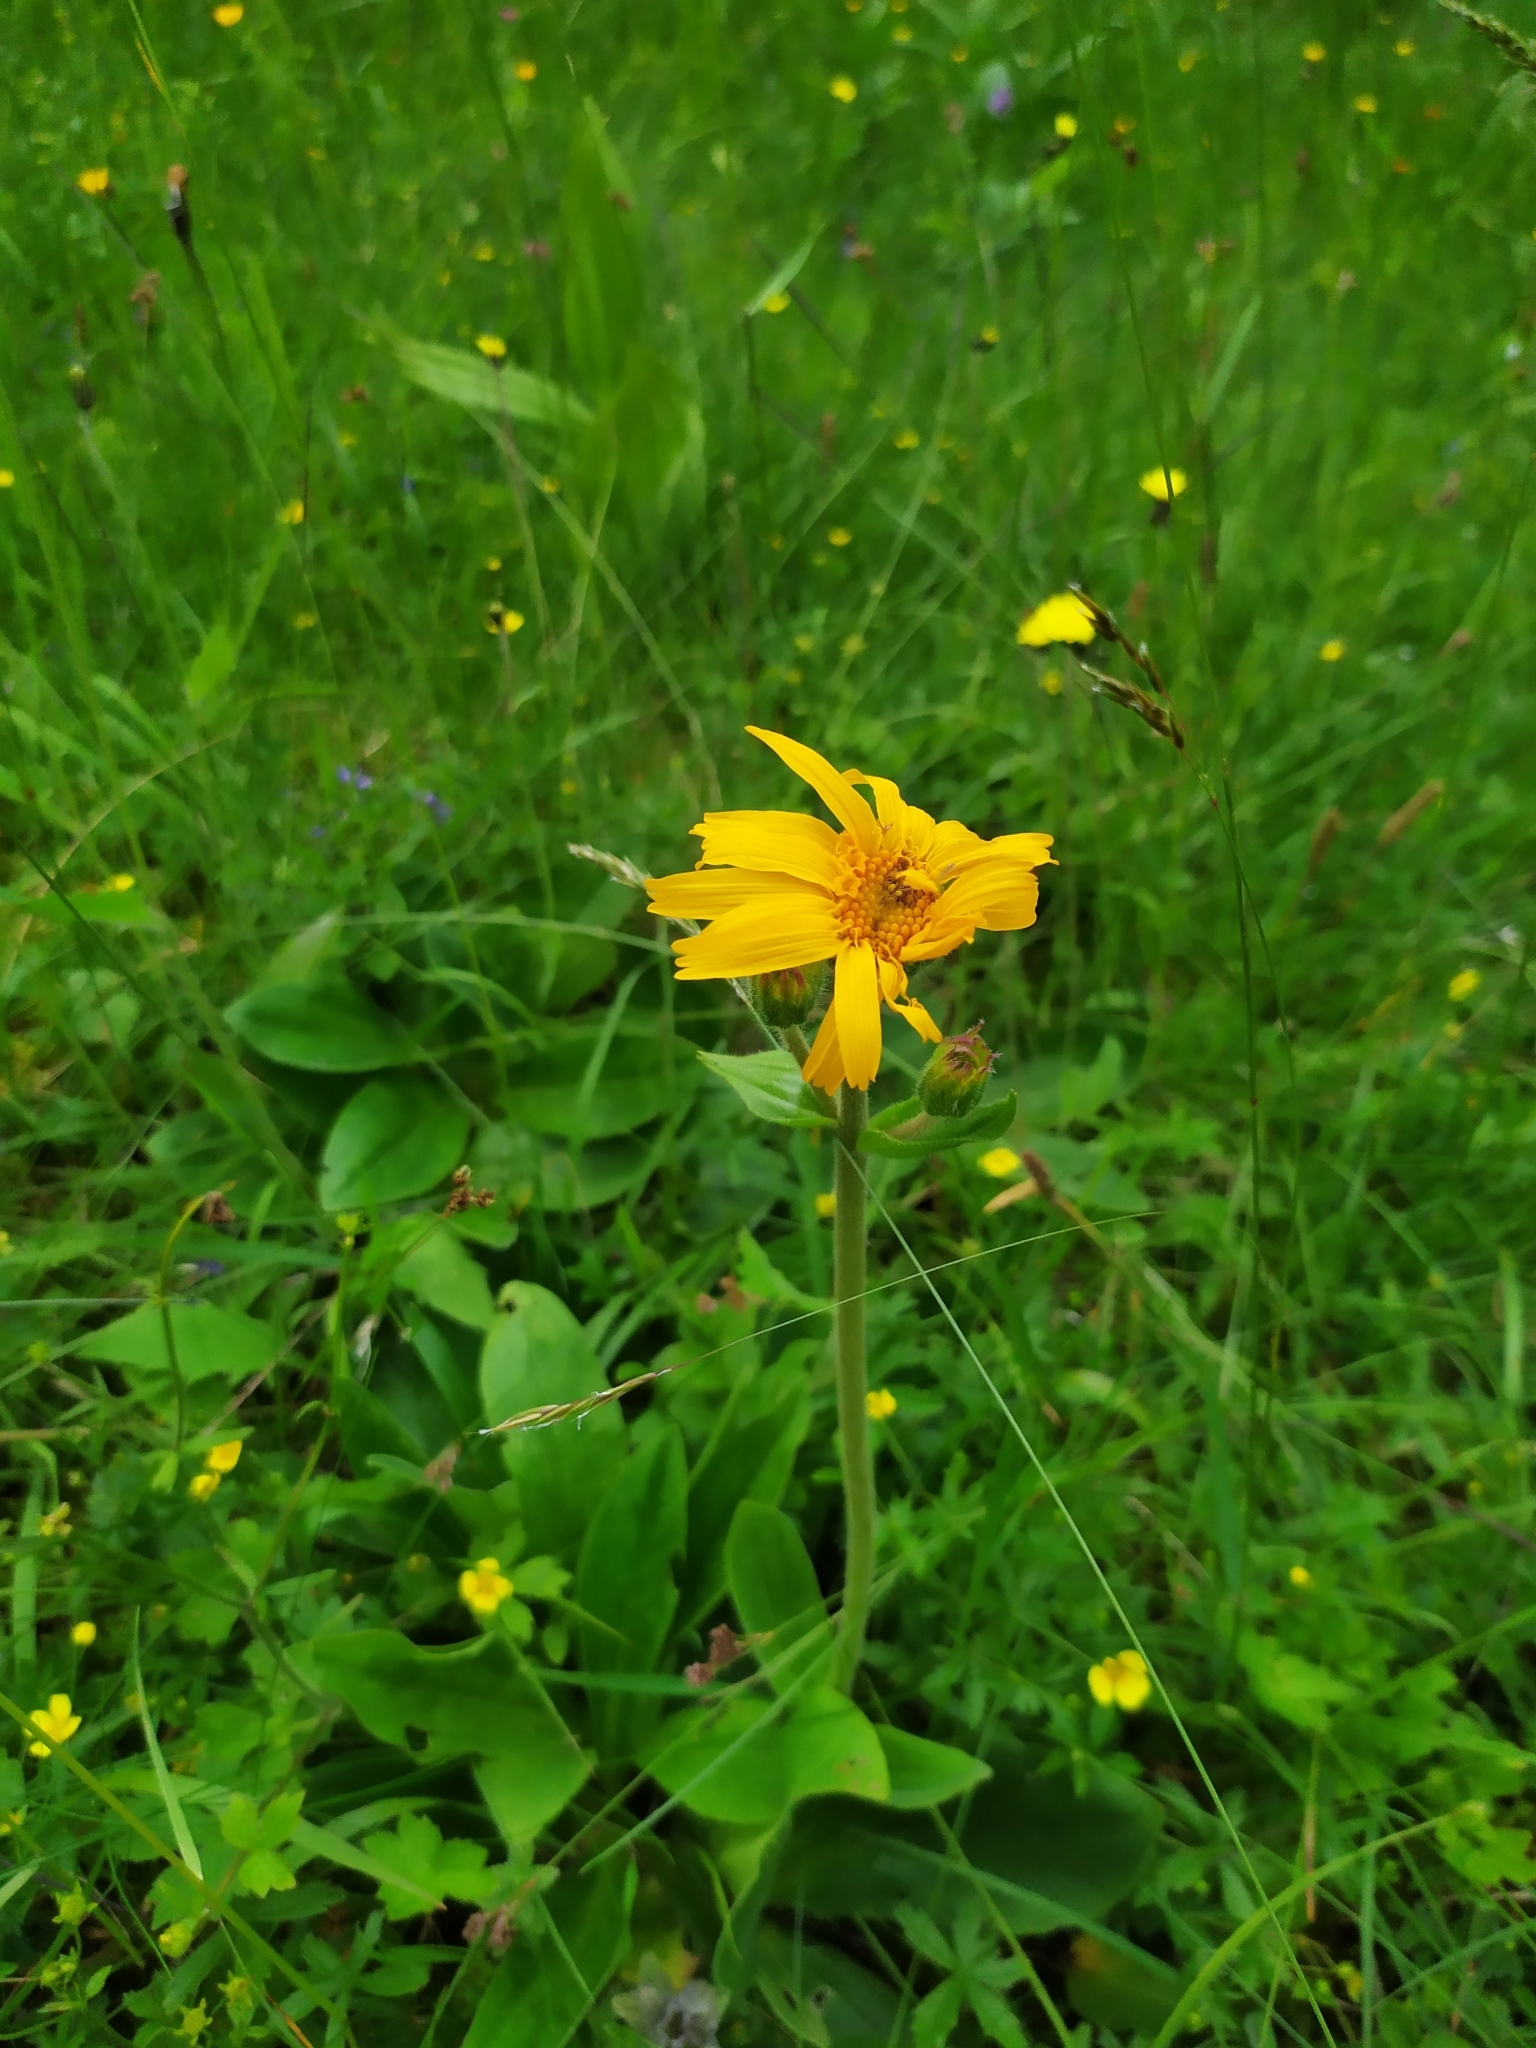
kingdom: Plantae
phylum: Tracheophyta
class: Magnoliopsida
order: Asterales
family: Asteraceae
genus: Arnica
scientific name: Arnica montana
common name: Leopard's bane
